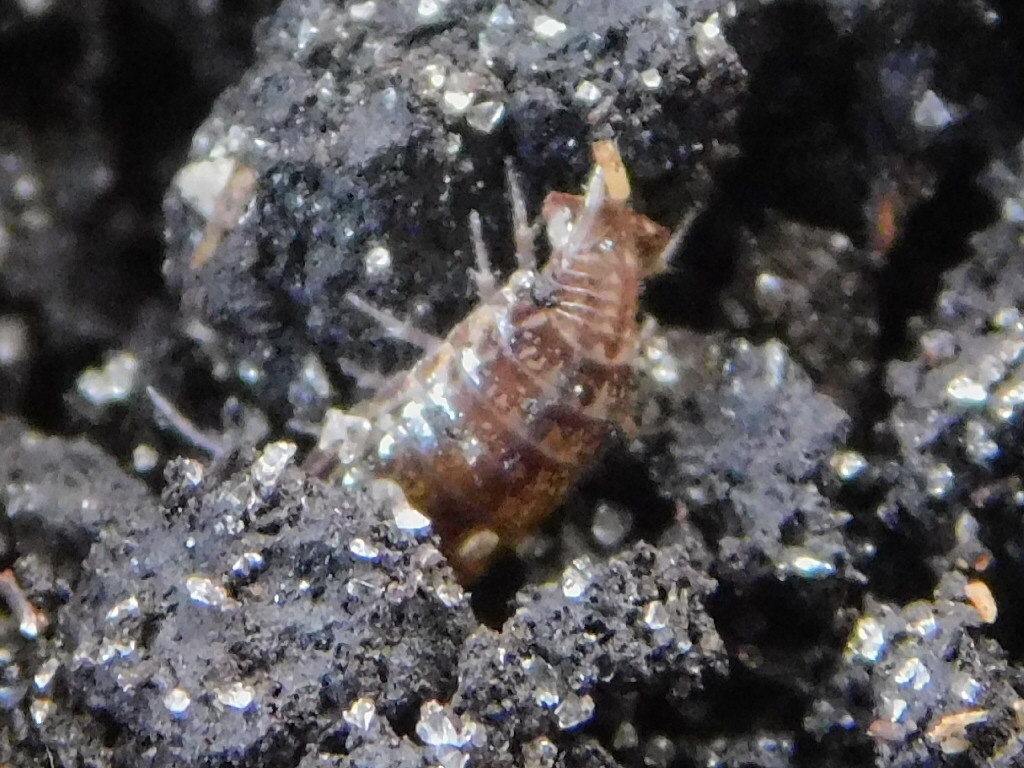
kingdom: Animalia
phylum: Arthropoda
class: Malacostraca
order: Isopoda
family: Philosciidae
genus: Atlantoscia
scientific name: Atlantoscia floridana
